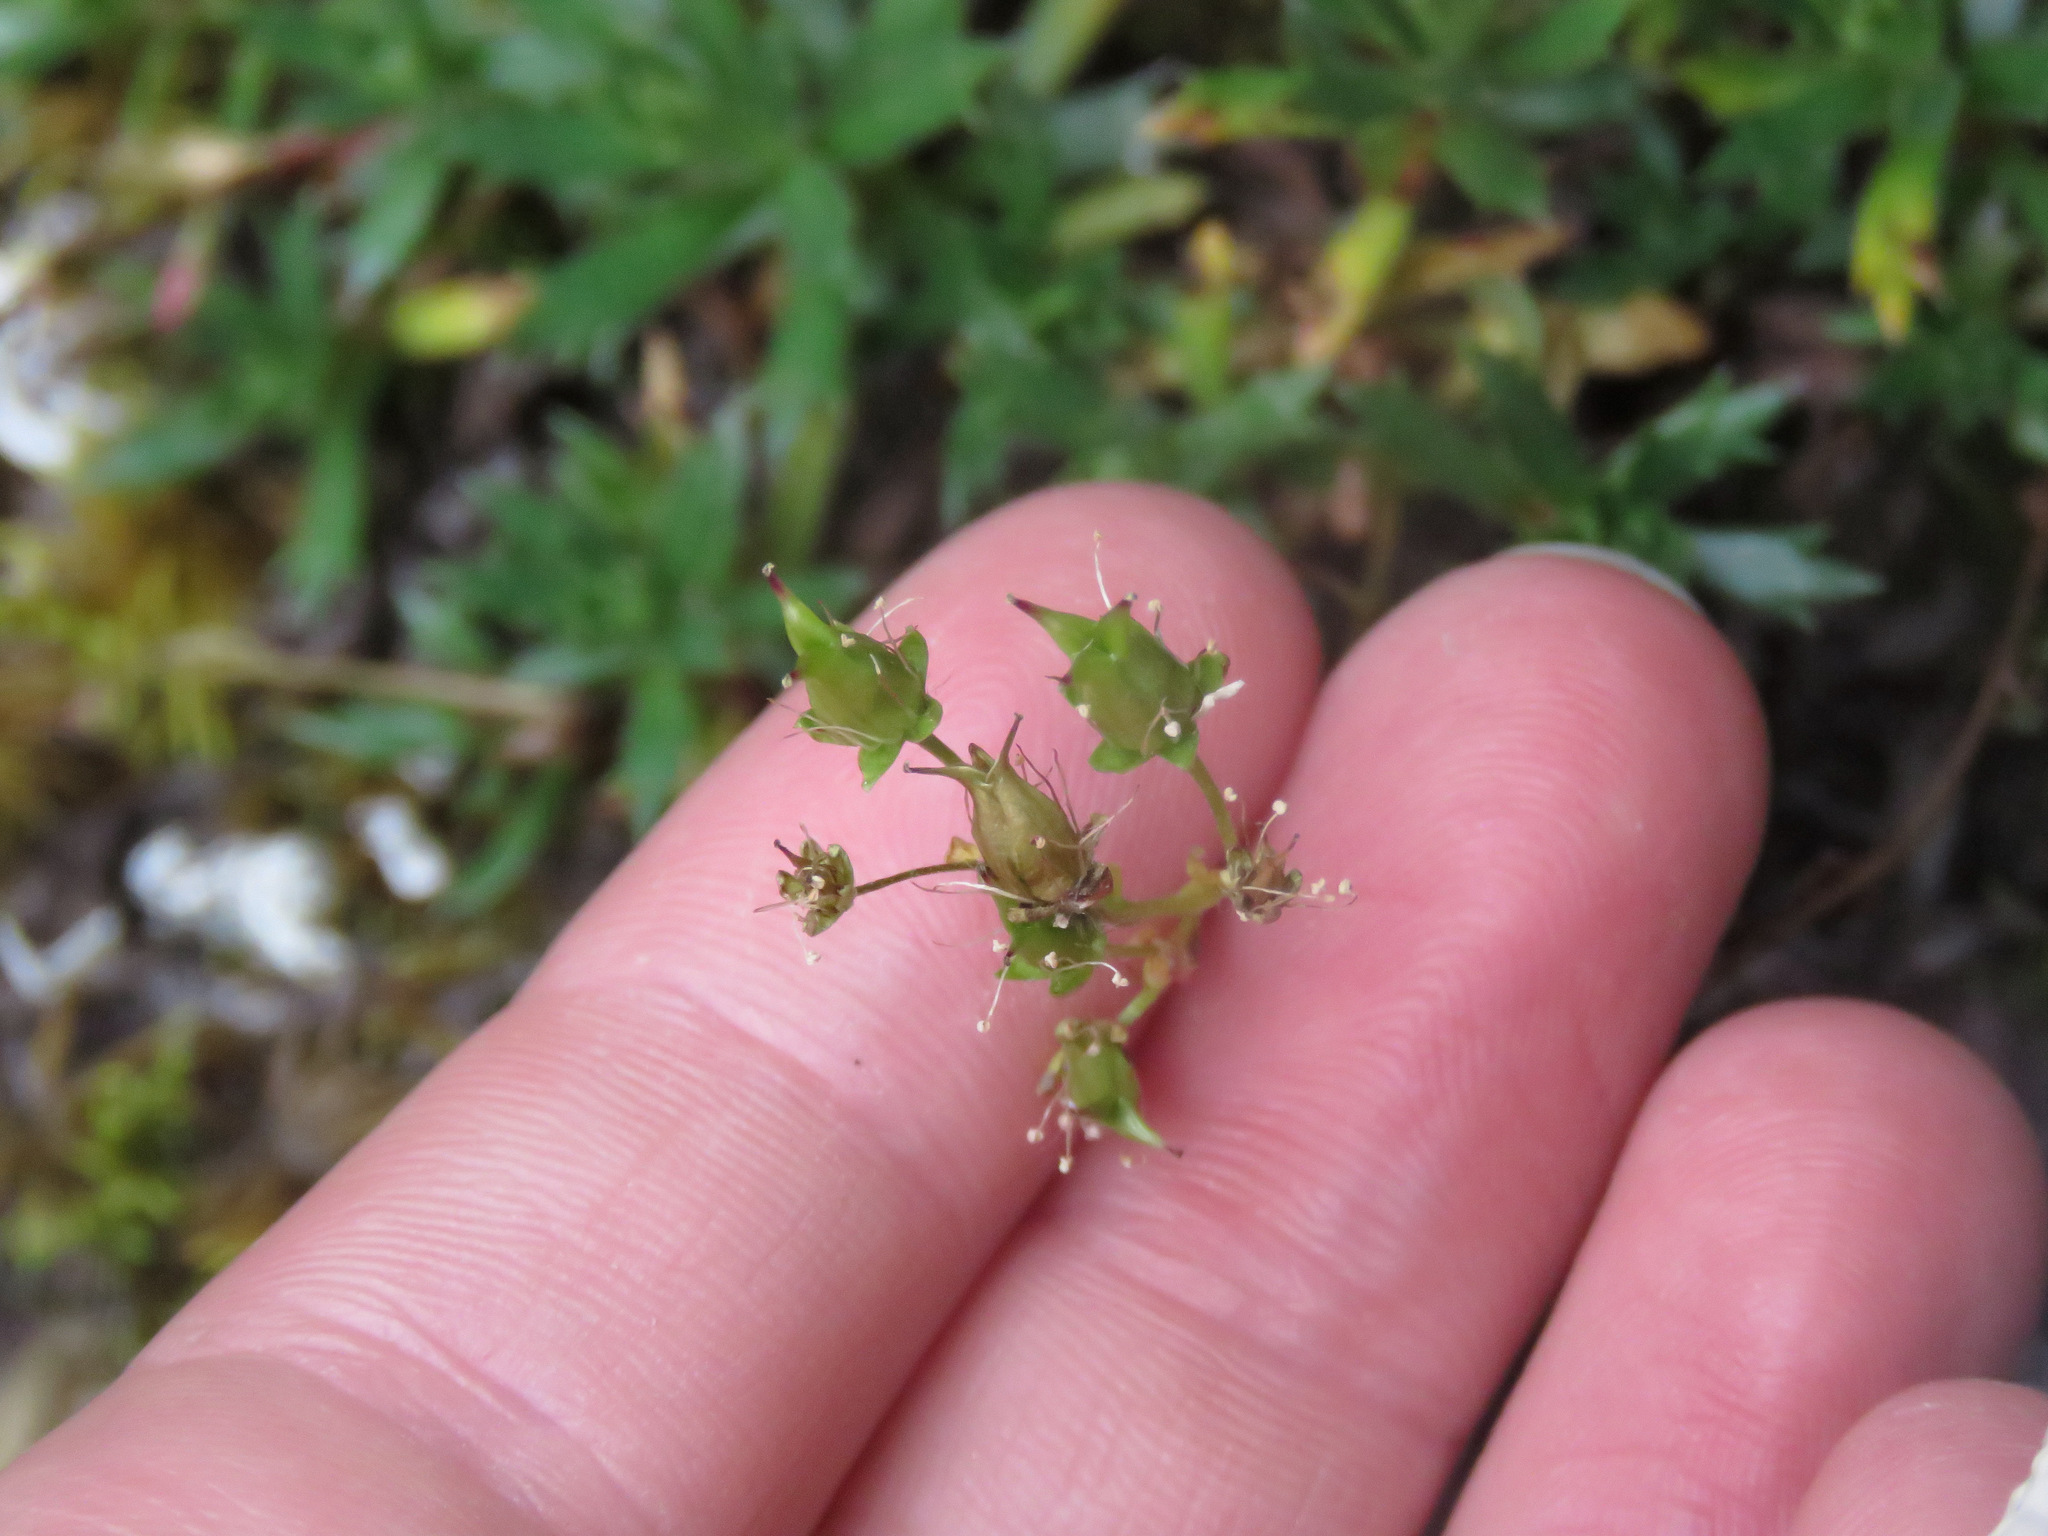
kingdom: Plantae
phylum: Tracheophyta
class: Magnoliopsida
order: Saxifragales
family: Saxifragaceae
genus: Saxifraga
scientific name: Saxifraga tricuspidata
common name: Prickly saxifrage
